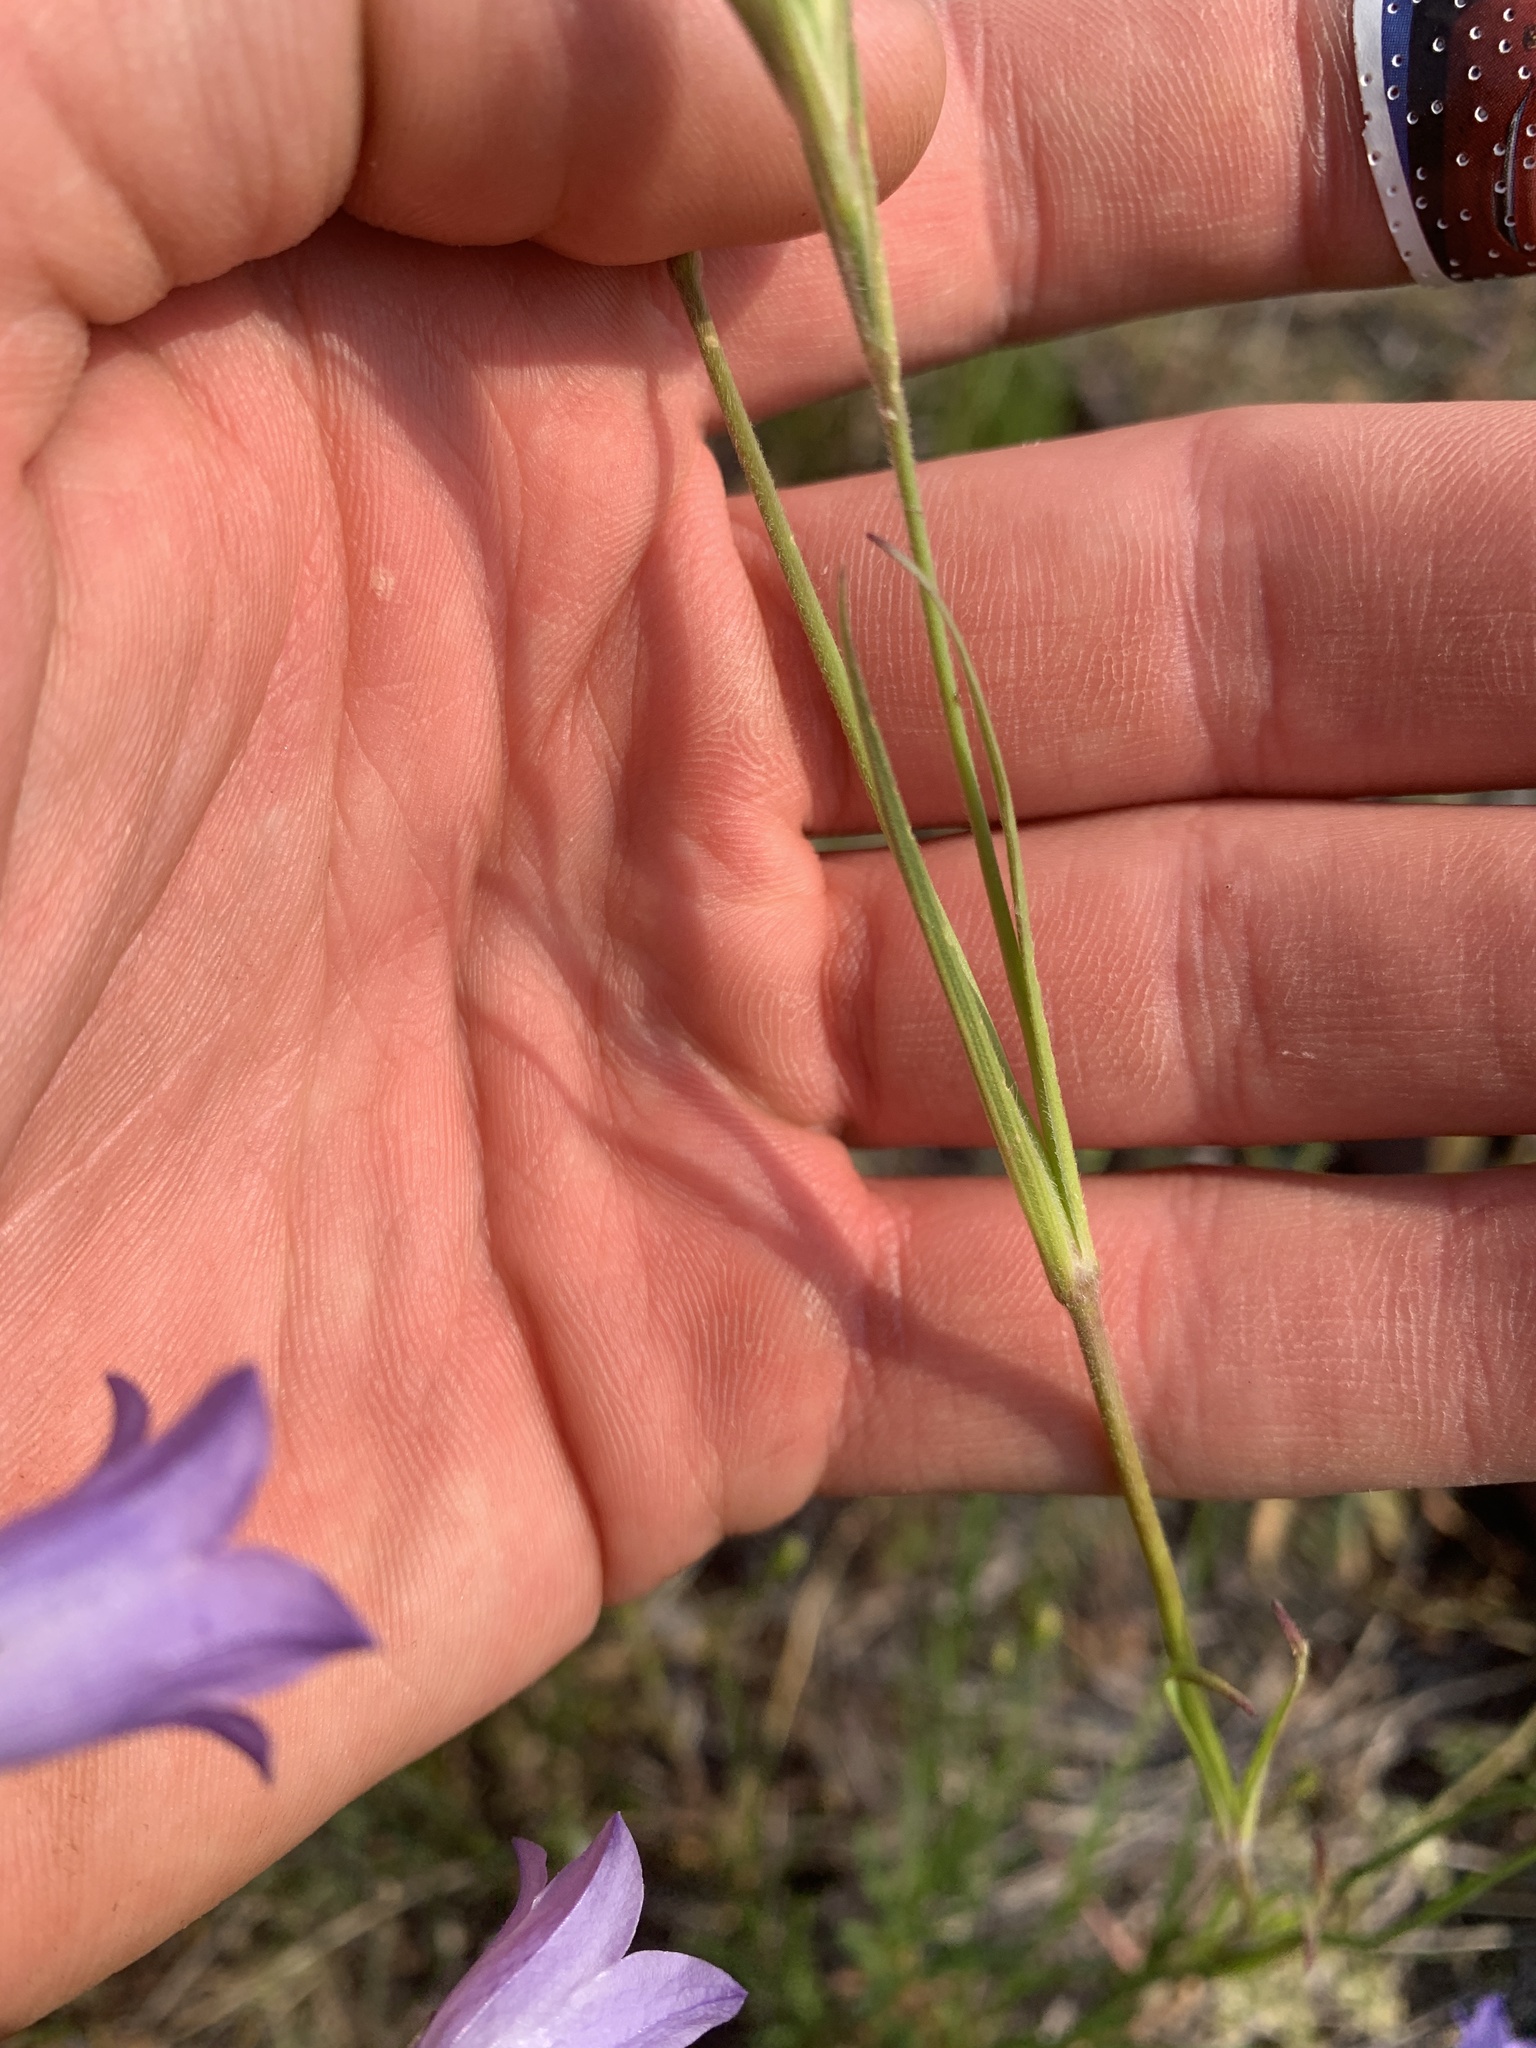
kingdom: Plantae
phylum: Tracheophyta
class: Magnoliopsida
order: Caryophyllales
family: Caryophyllaceae
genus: Dianthus
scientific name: Dianthus armeria
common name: Deptford pink
